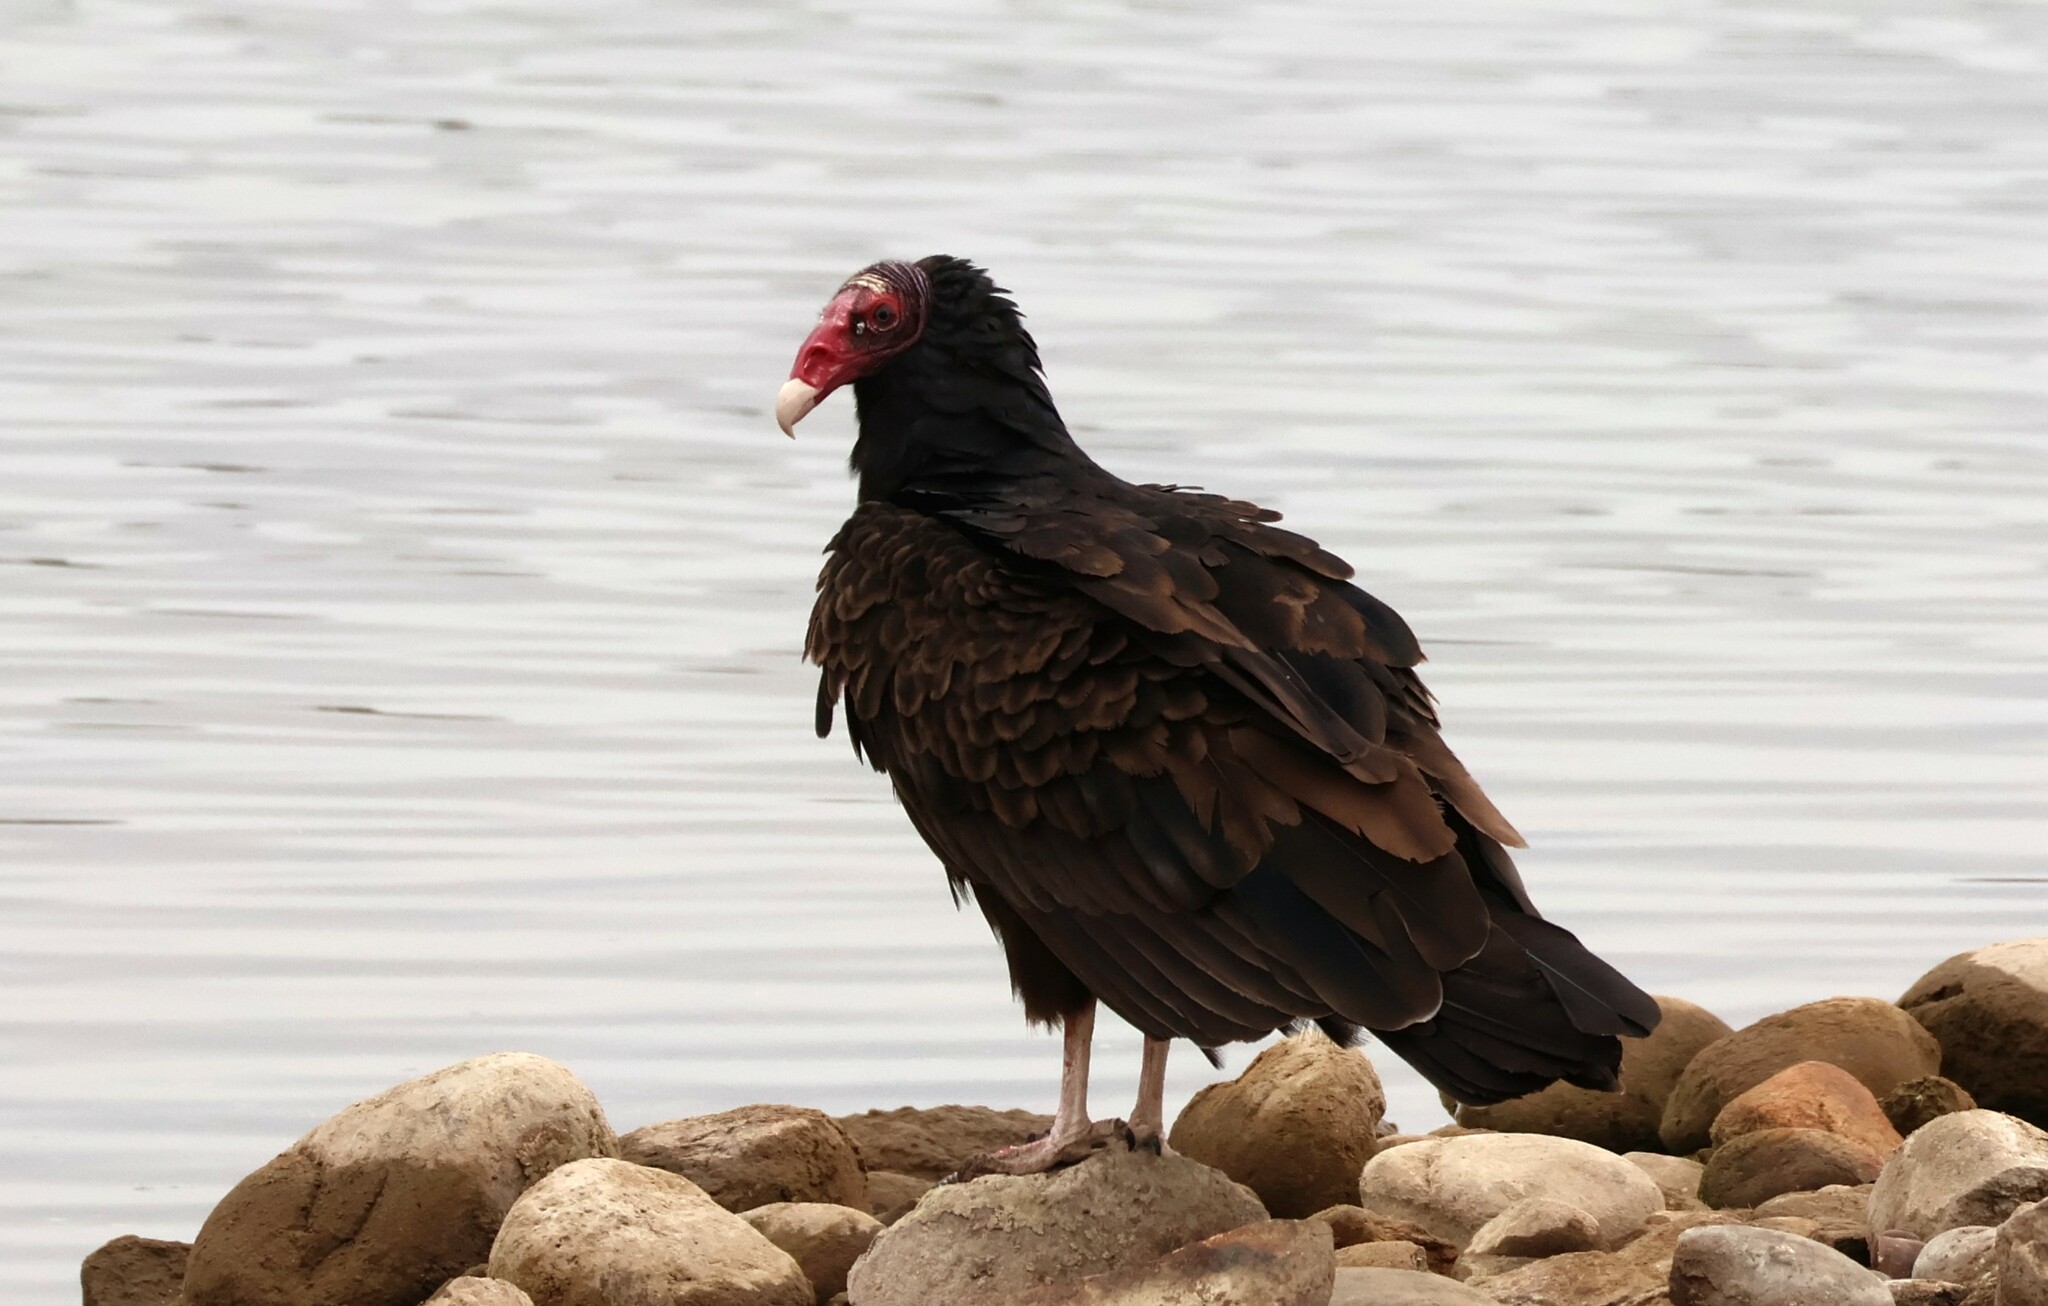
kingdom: Animalia
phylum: Chordata
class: Aves
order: Accipitriformes
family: Cathartidae
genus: Cathartes
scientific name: Cathartes aura
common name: Turkey vulture
